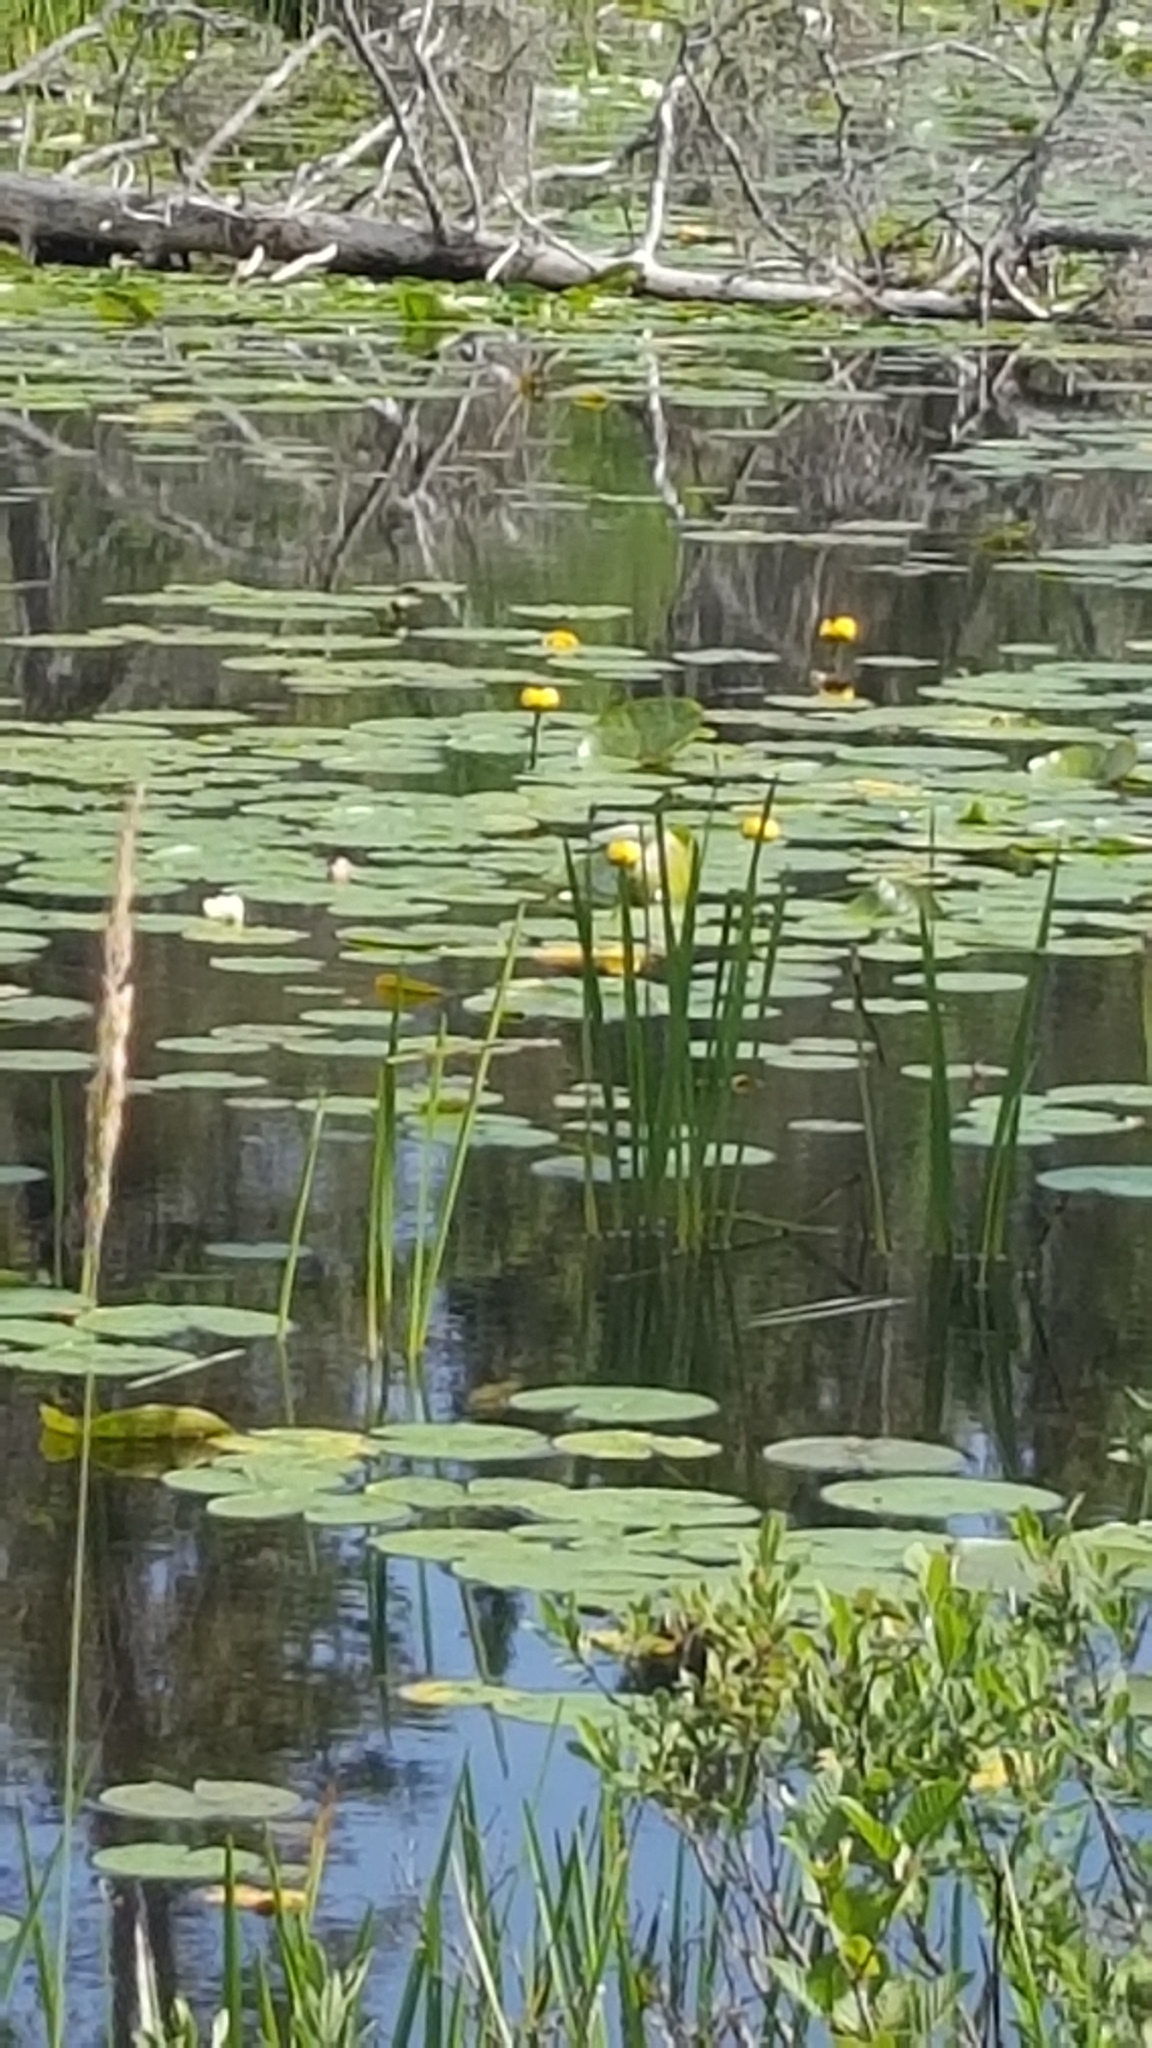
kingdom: Plantae
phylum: Tracheophyta
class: Magnoliopsida
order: Nymphaeales
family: Nymphaeaceae
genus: Nuphar
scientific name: Nuphar variegata
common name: Beaver-root
